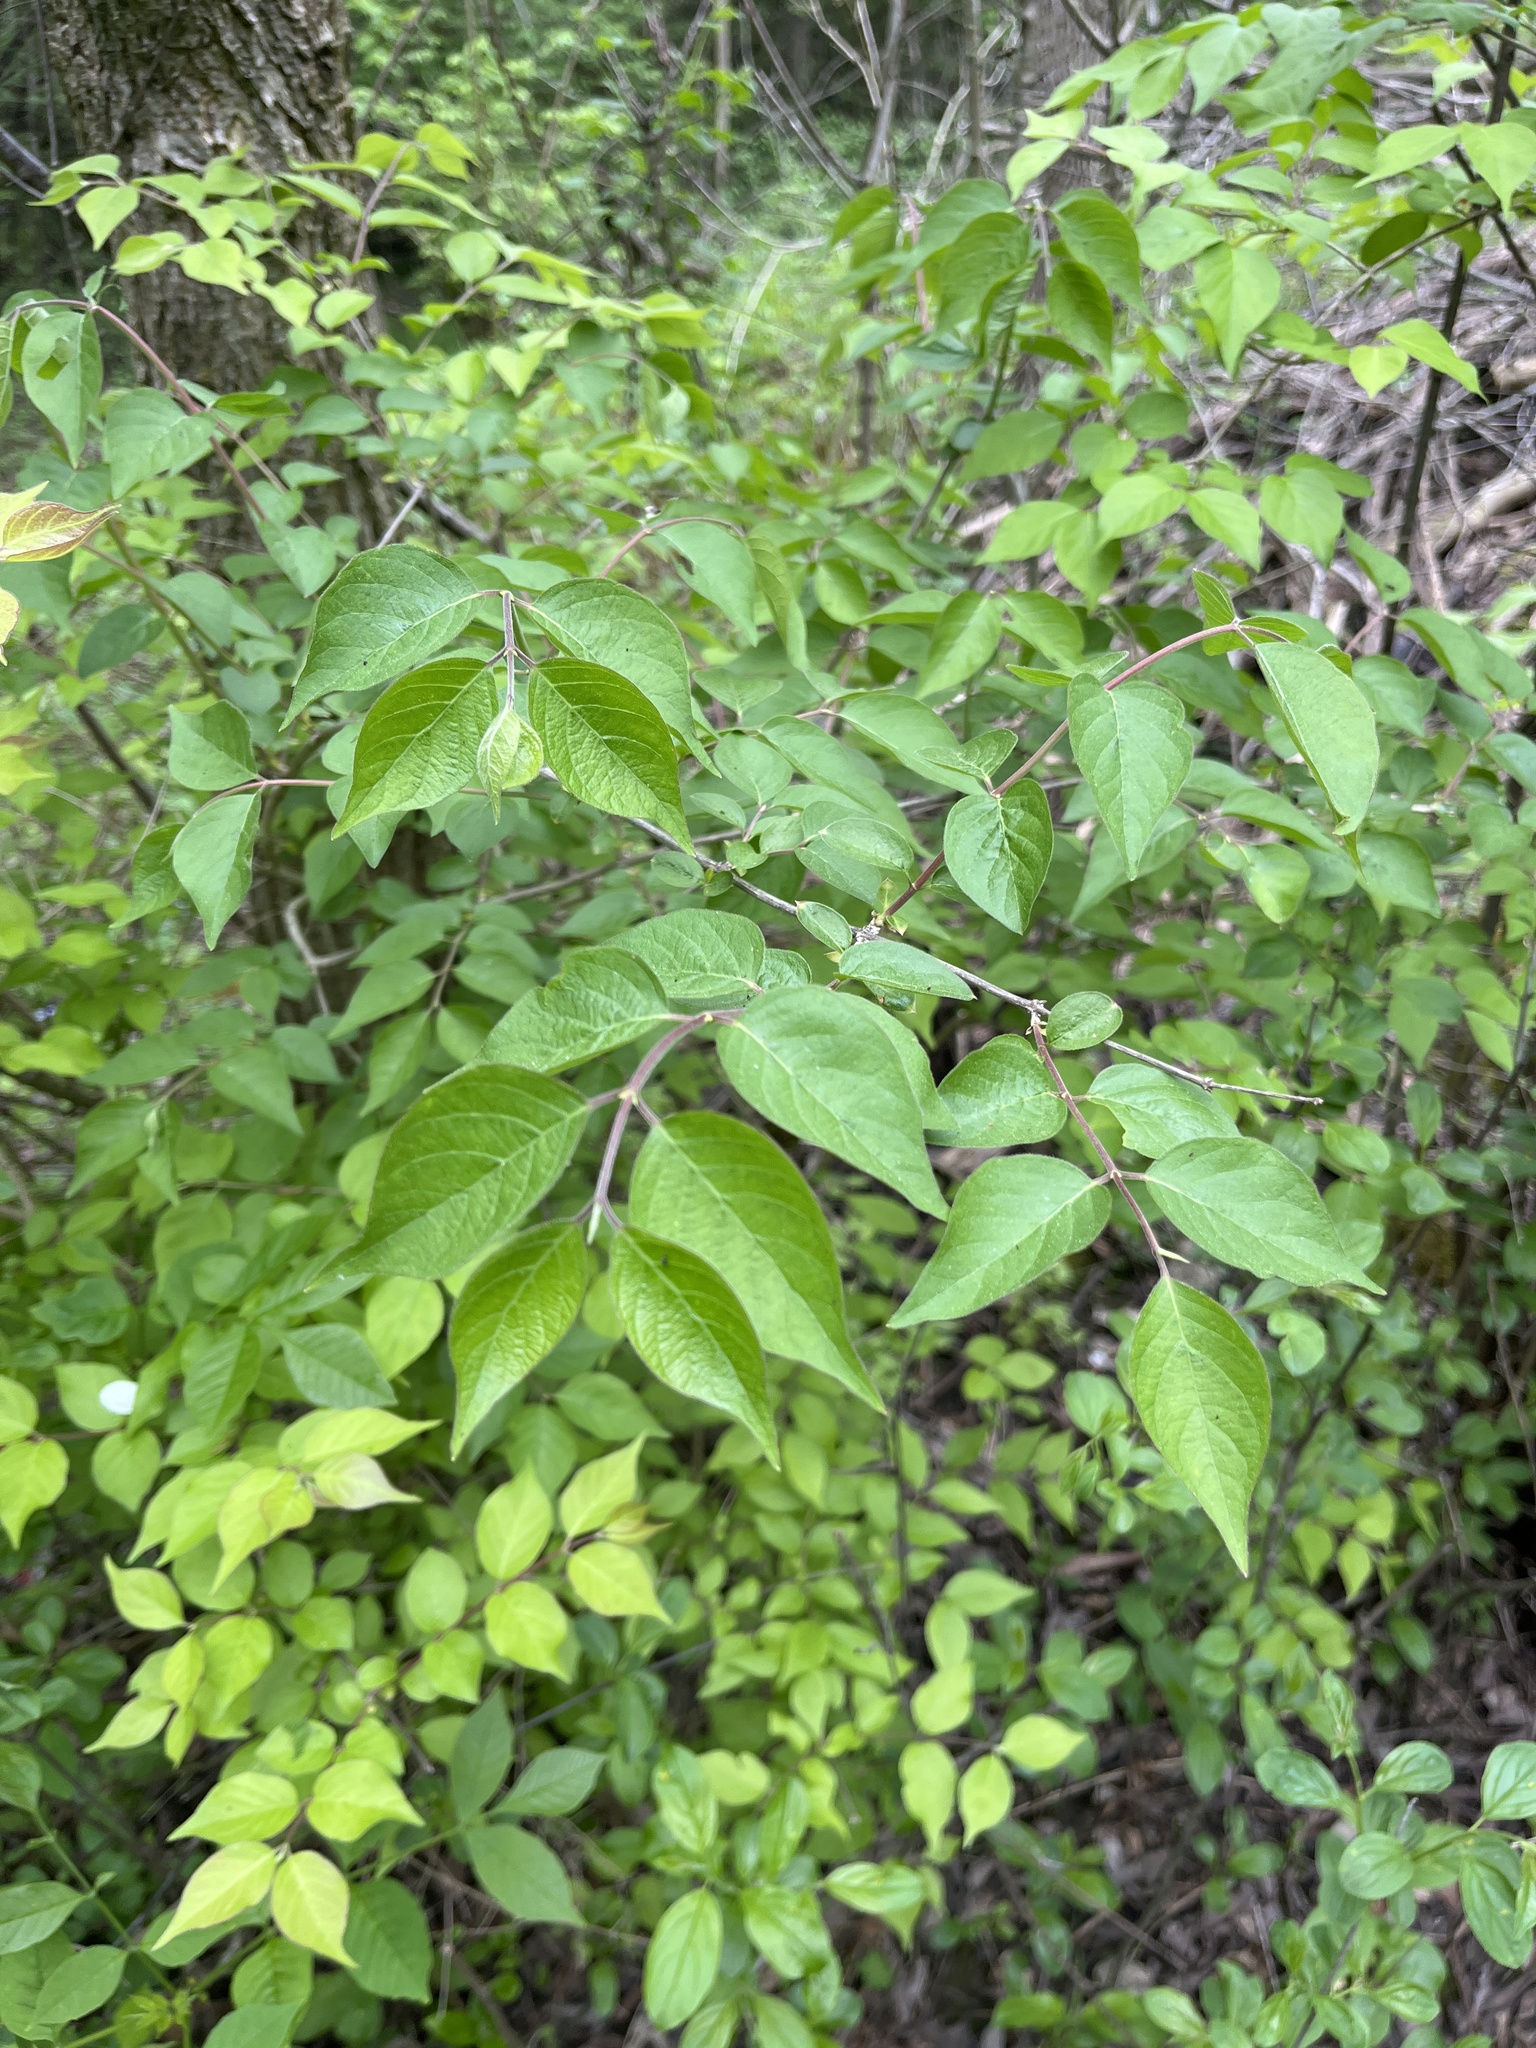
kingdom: Plantae
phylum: Tracheophyta
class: Magnoliopsida
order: Dipsacales
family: Caprifoliaceae
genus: Lonicera
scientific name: Lonicera maackii
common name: Amur honeysuckle
